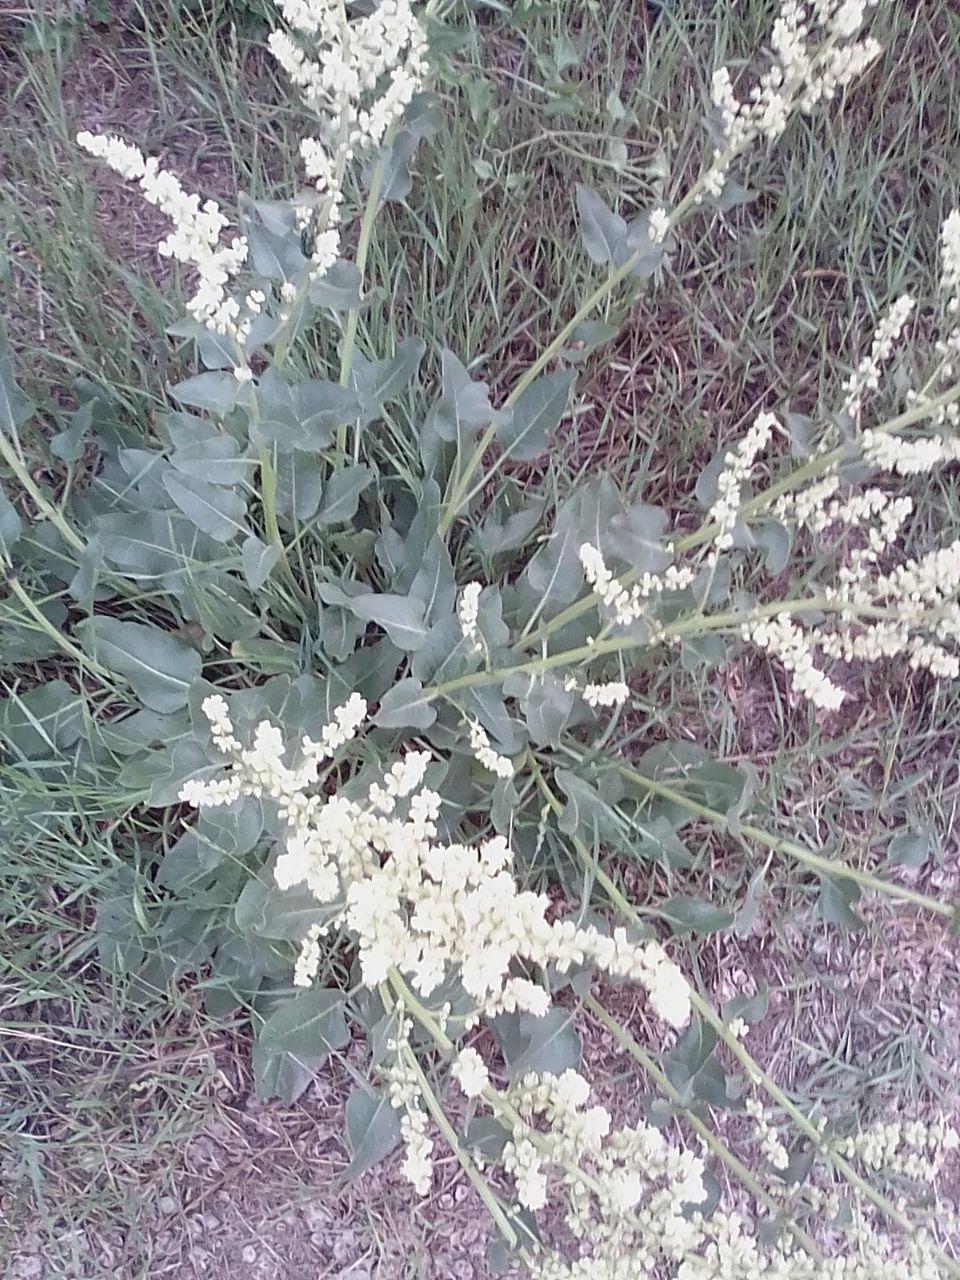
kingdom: Plantae
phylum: Tracheophyta
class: Magnoliopsida
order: Caryophyllales
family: Amaranthaceae
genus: Beta
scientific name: Beta trigyna
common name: Caucasian beet
